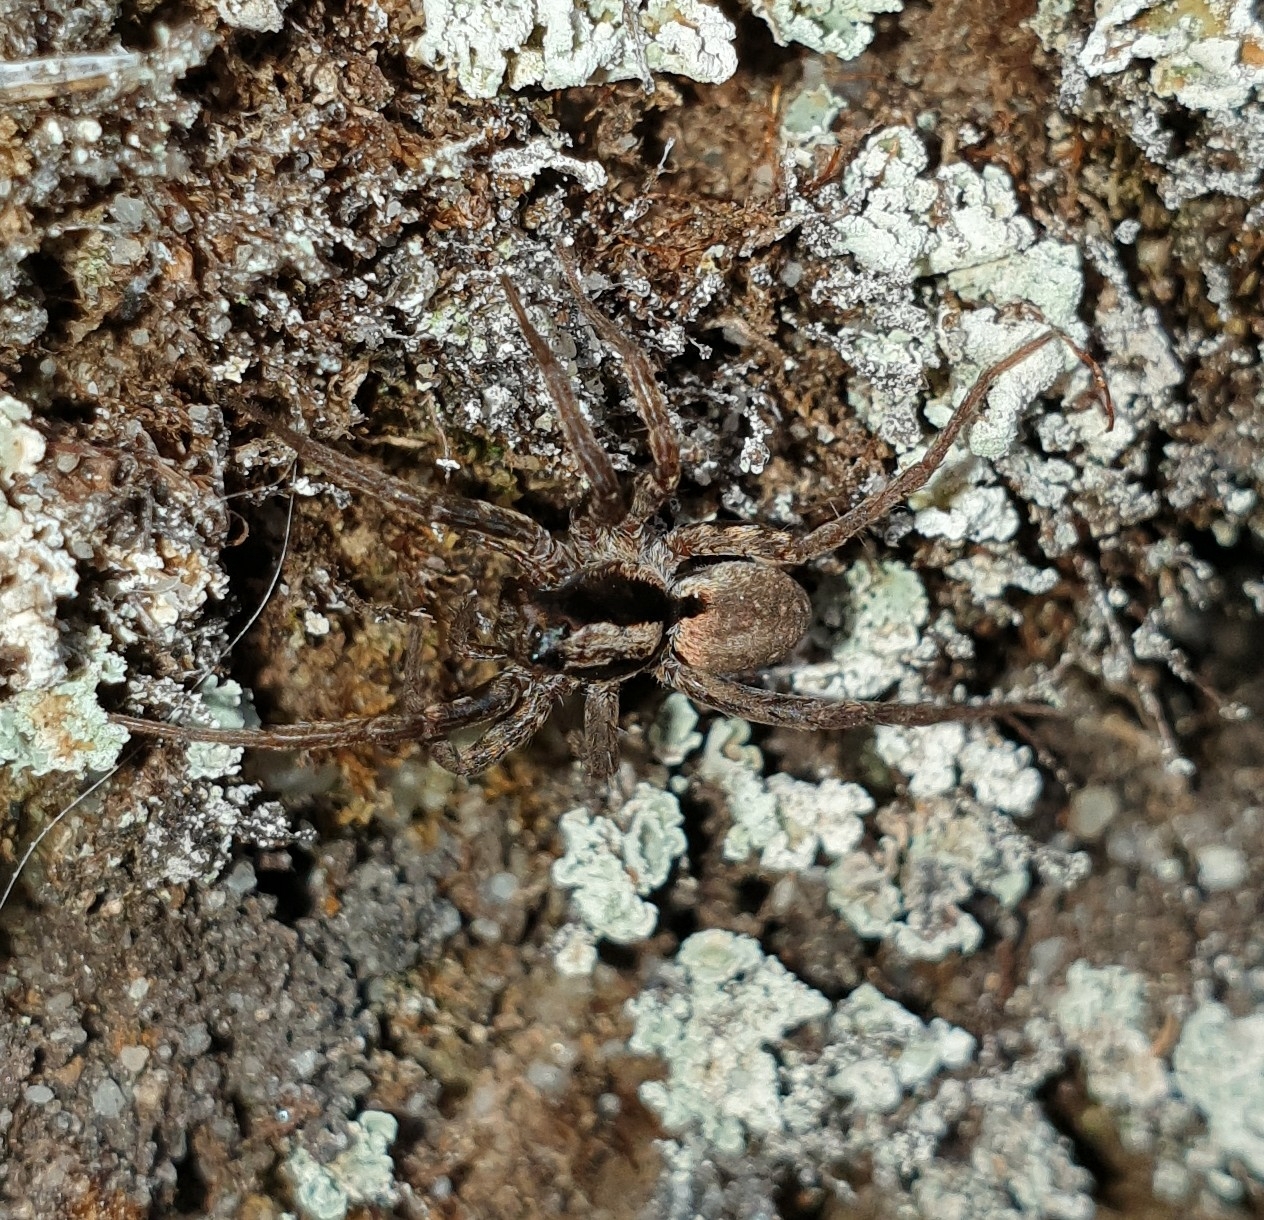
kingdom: Animalia
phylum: Arthropoda
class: Arachnida
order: Araneae
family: Lycosidae
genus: Xerolycosa
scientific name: Xerolycosa nemoralis
